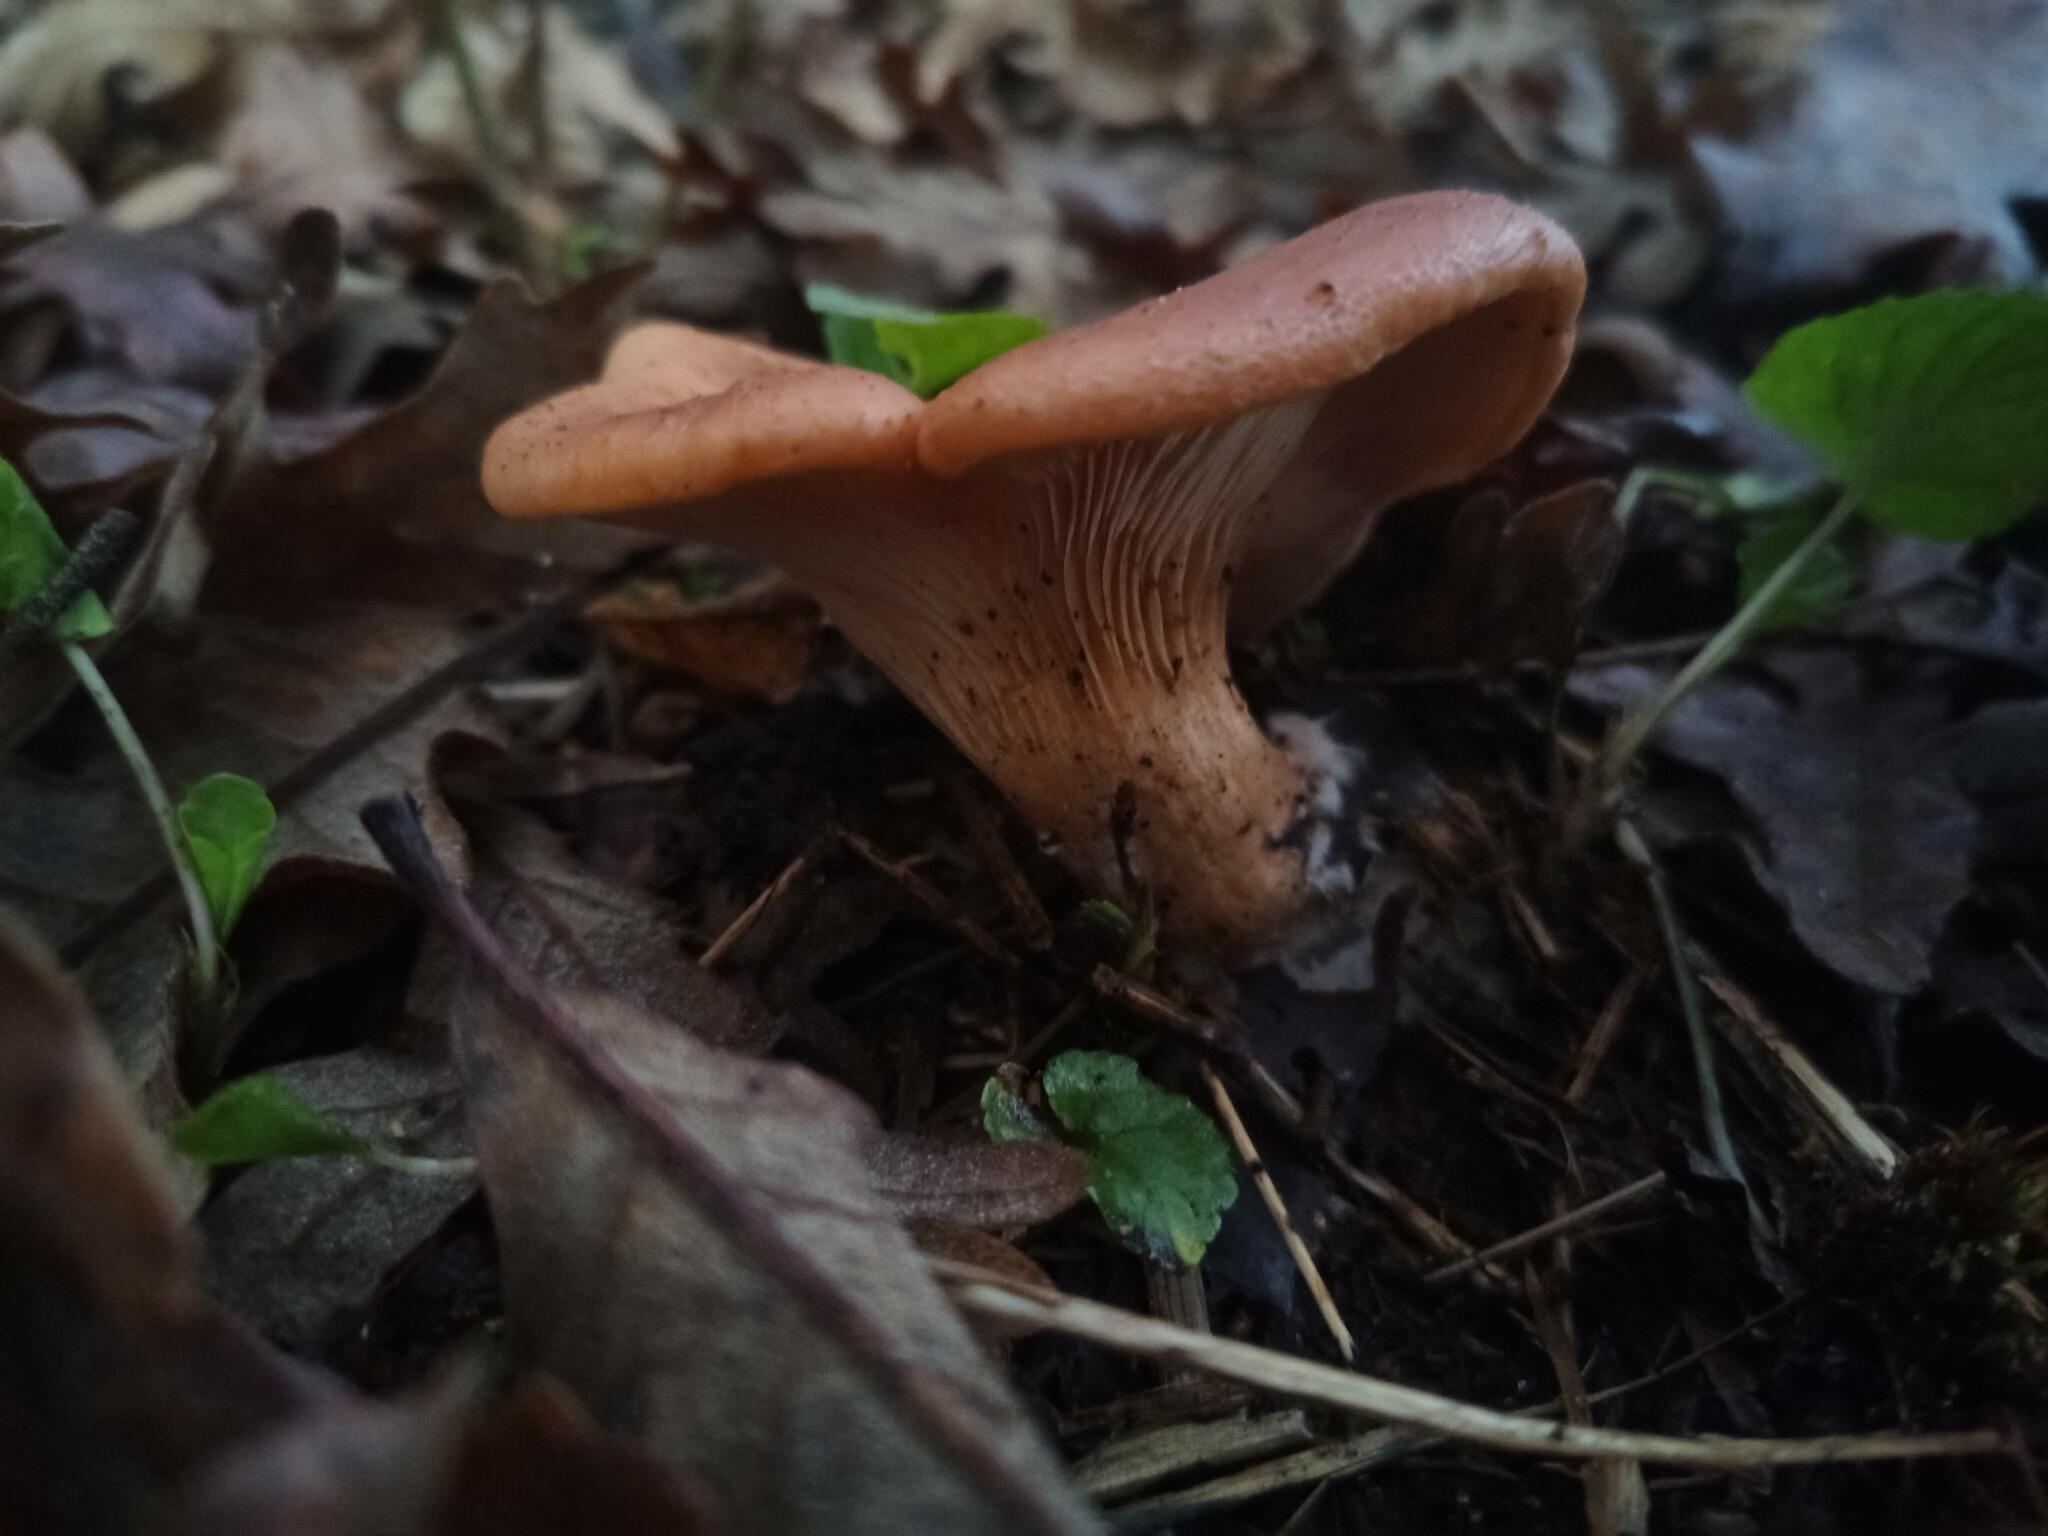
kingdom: Fungi
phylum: Basidiomycota
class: Agaricomycetes
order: Agaricales
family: Tricholomataceae
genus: Paralepista
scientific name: Paralepista flaccida
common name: Tawny funnel cap
